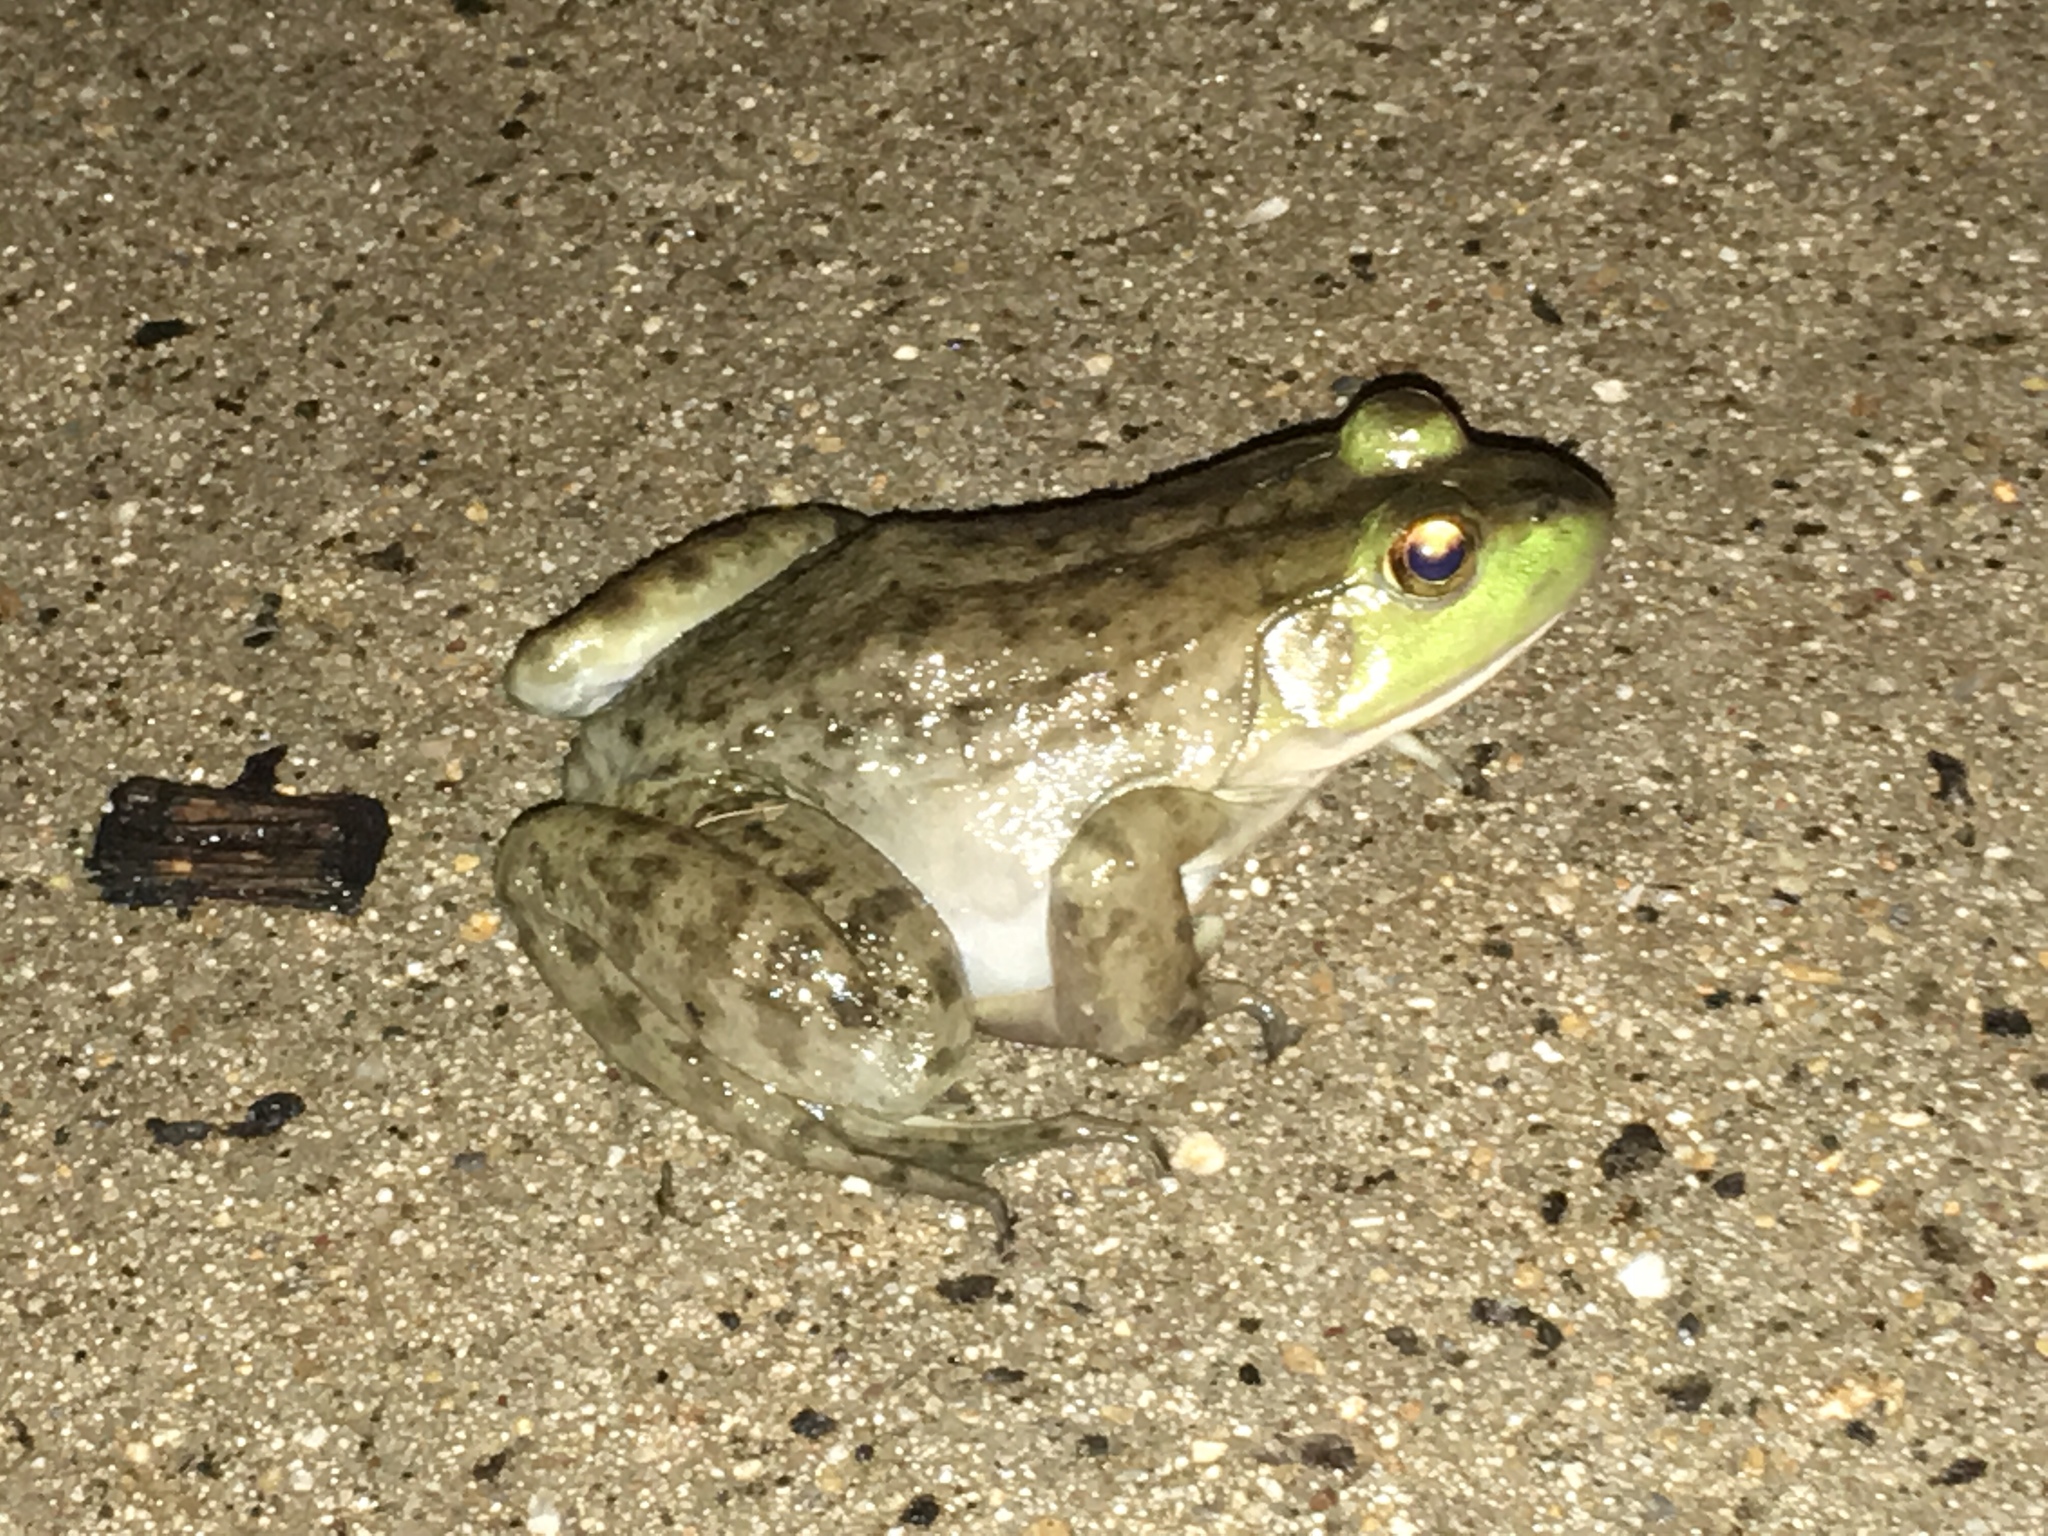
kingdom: Animalia
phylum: Chordata
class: Amphibia
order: Anura
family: Ranidae
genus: Lithobates
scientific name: Lithobates catesbeianus
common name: American bullfrog
